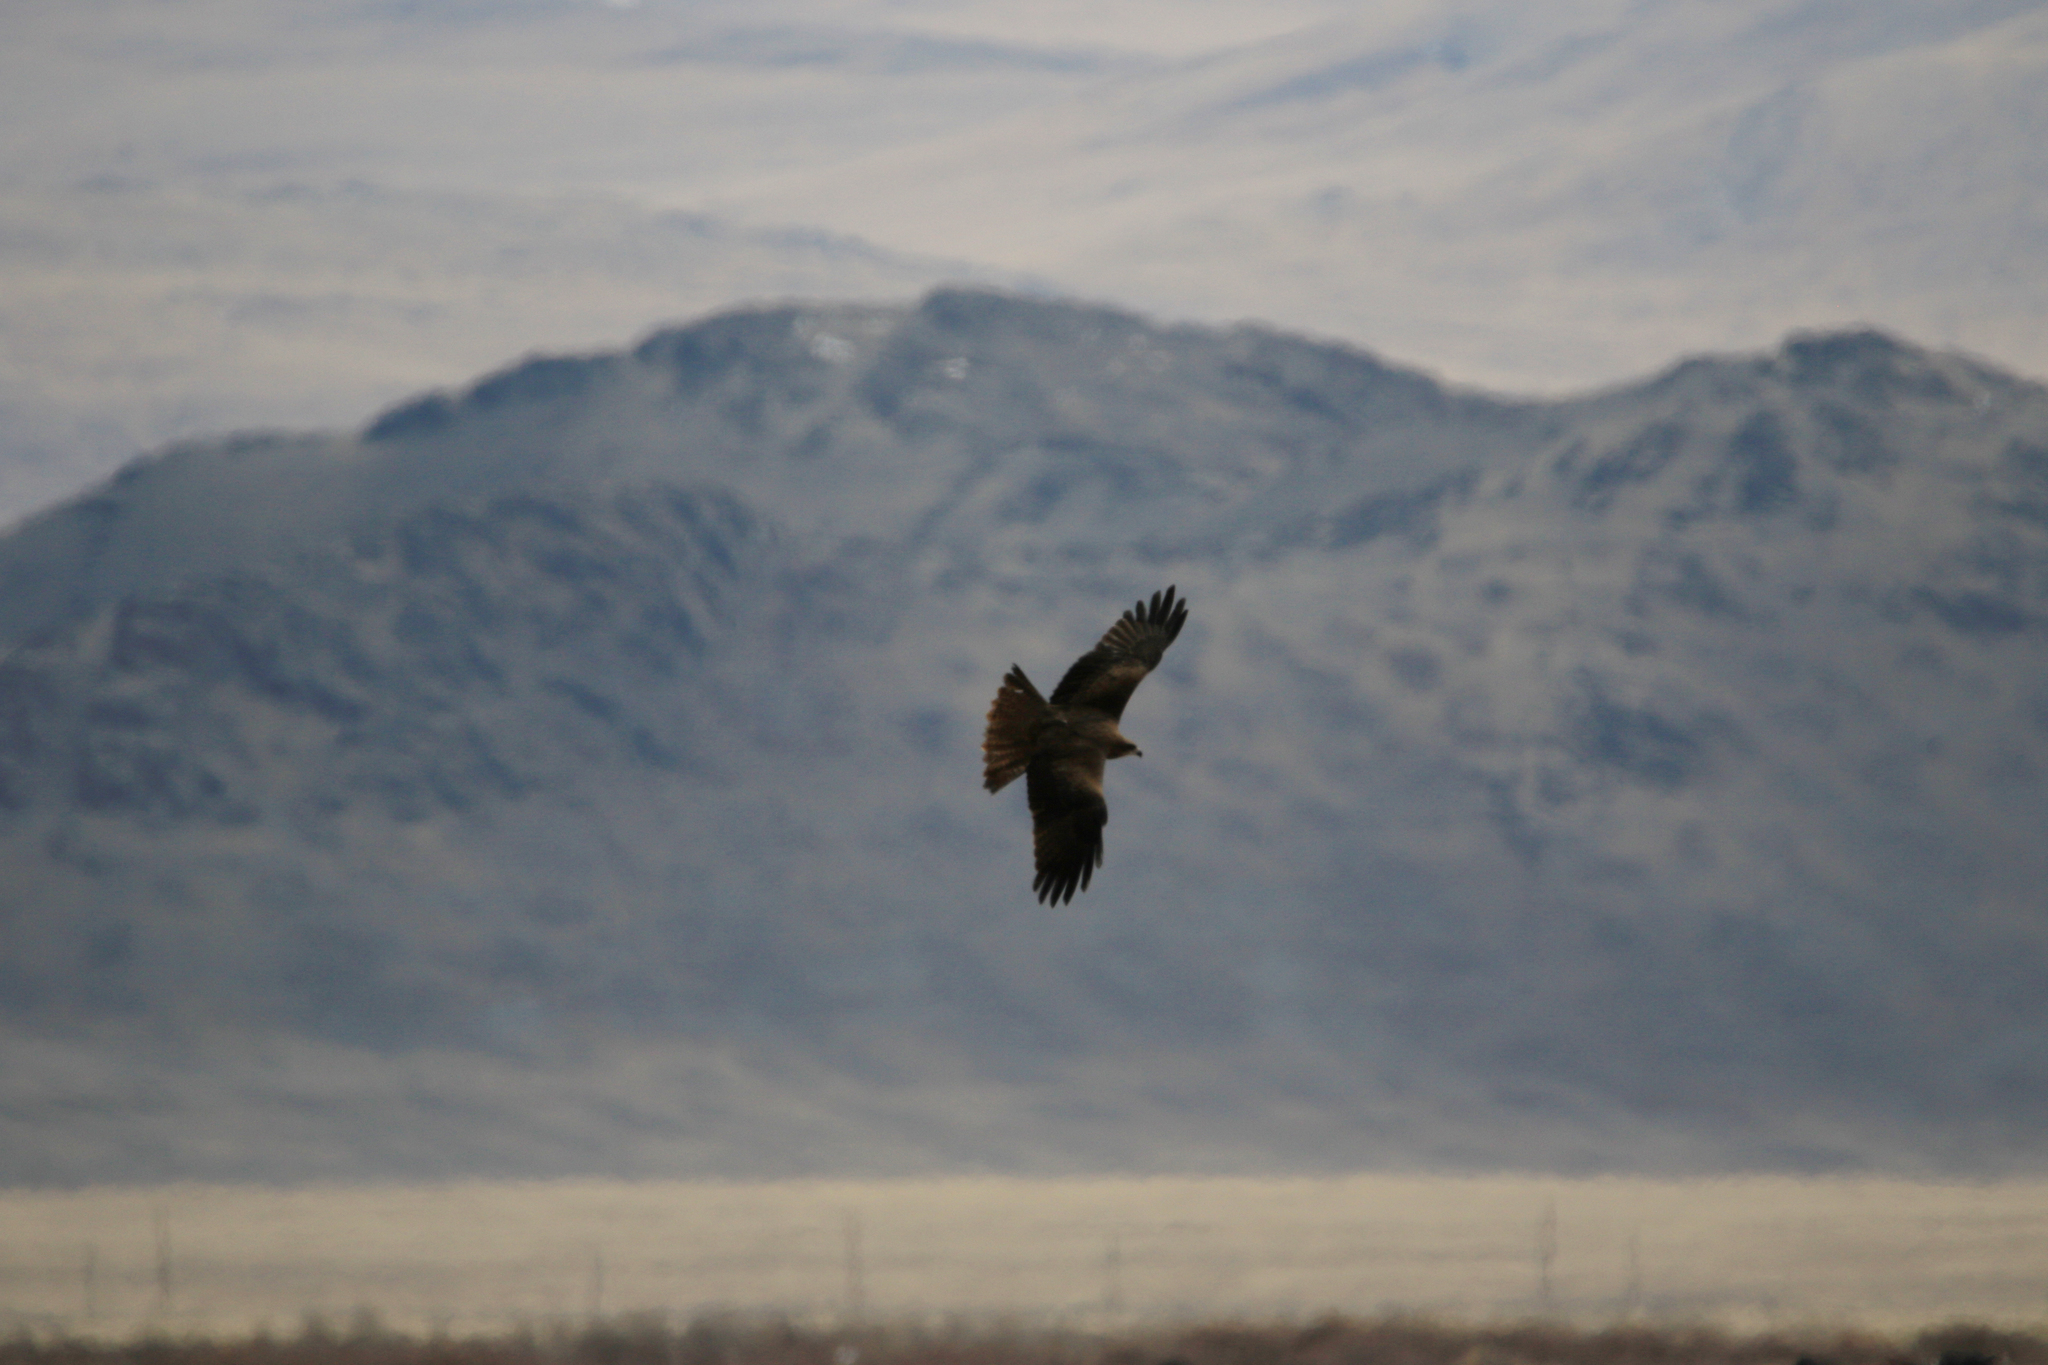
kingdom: Animalia
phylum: Chordata
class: Aves
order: Accipitriformes
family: Accipitridae
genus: Milvus
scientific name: Milvus migrans
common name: Black kite
